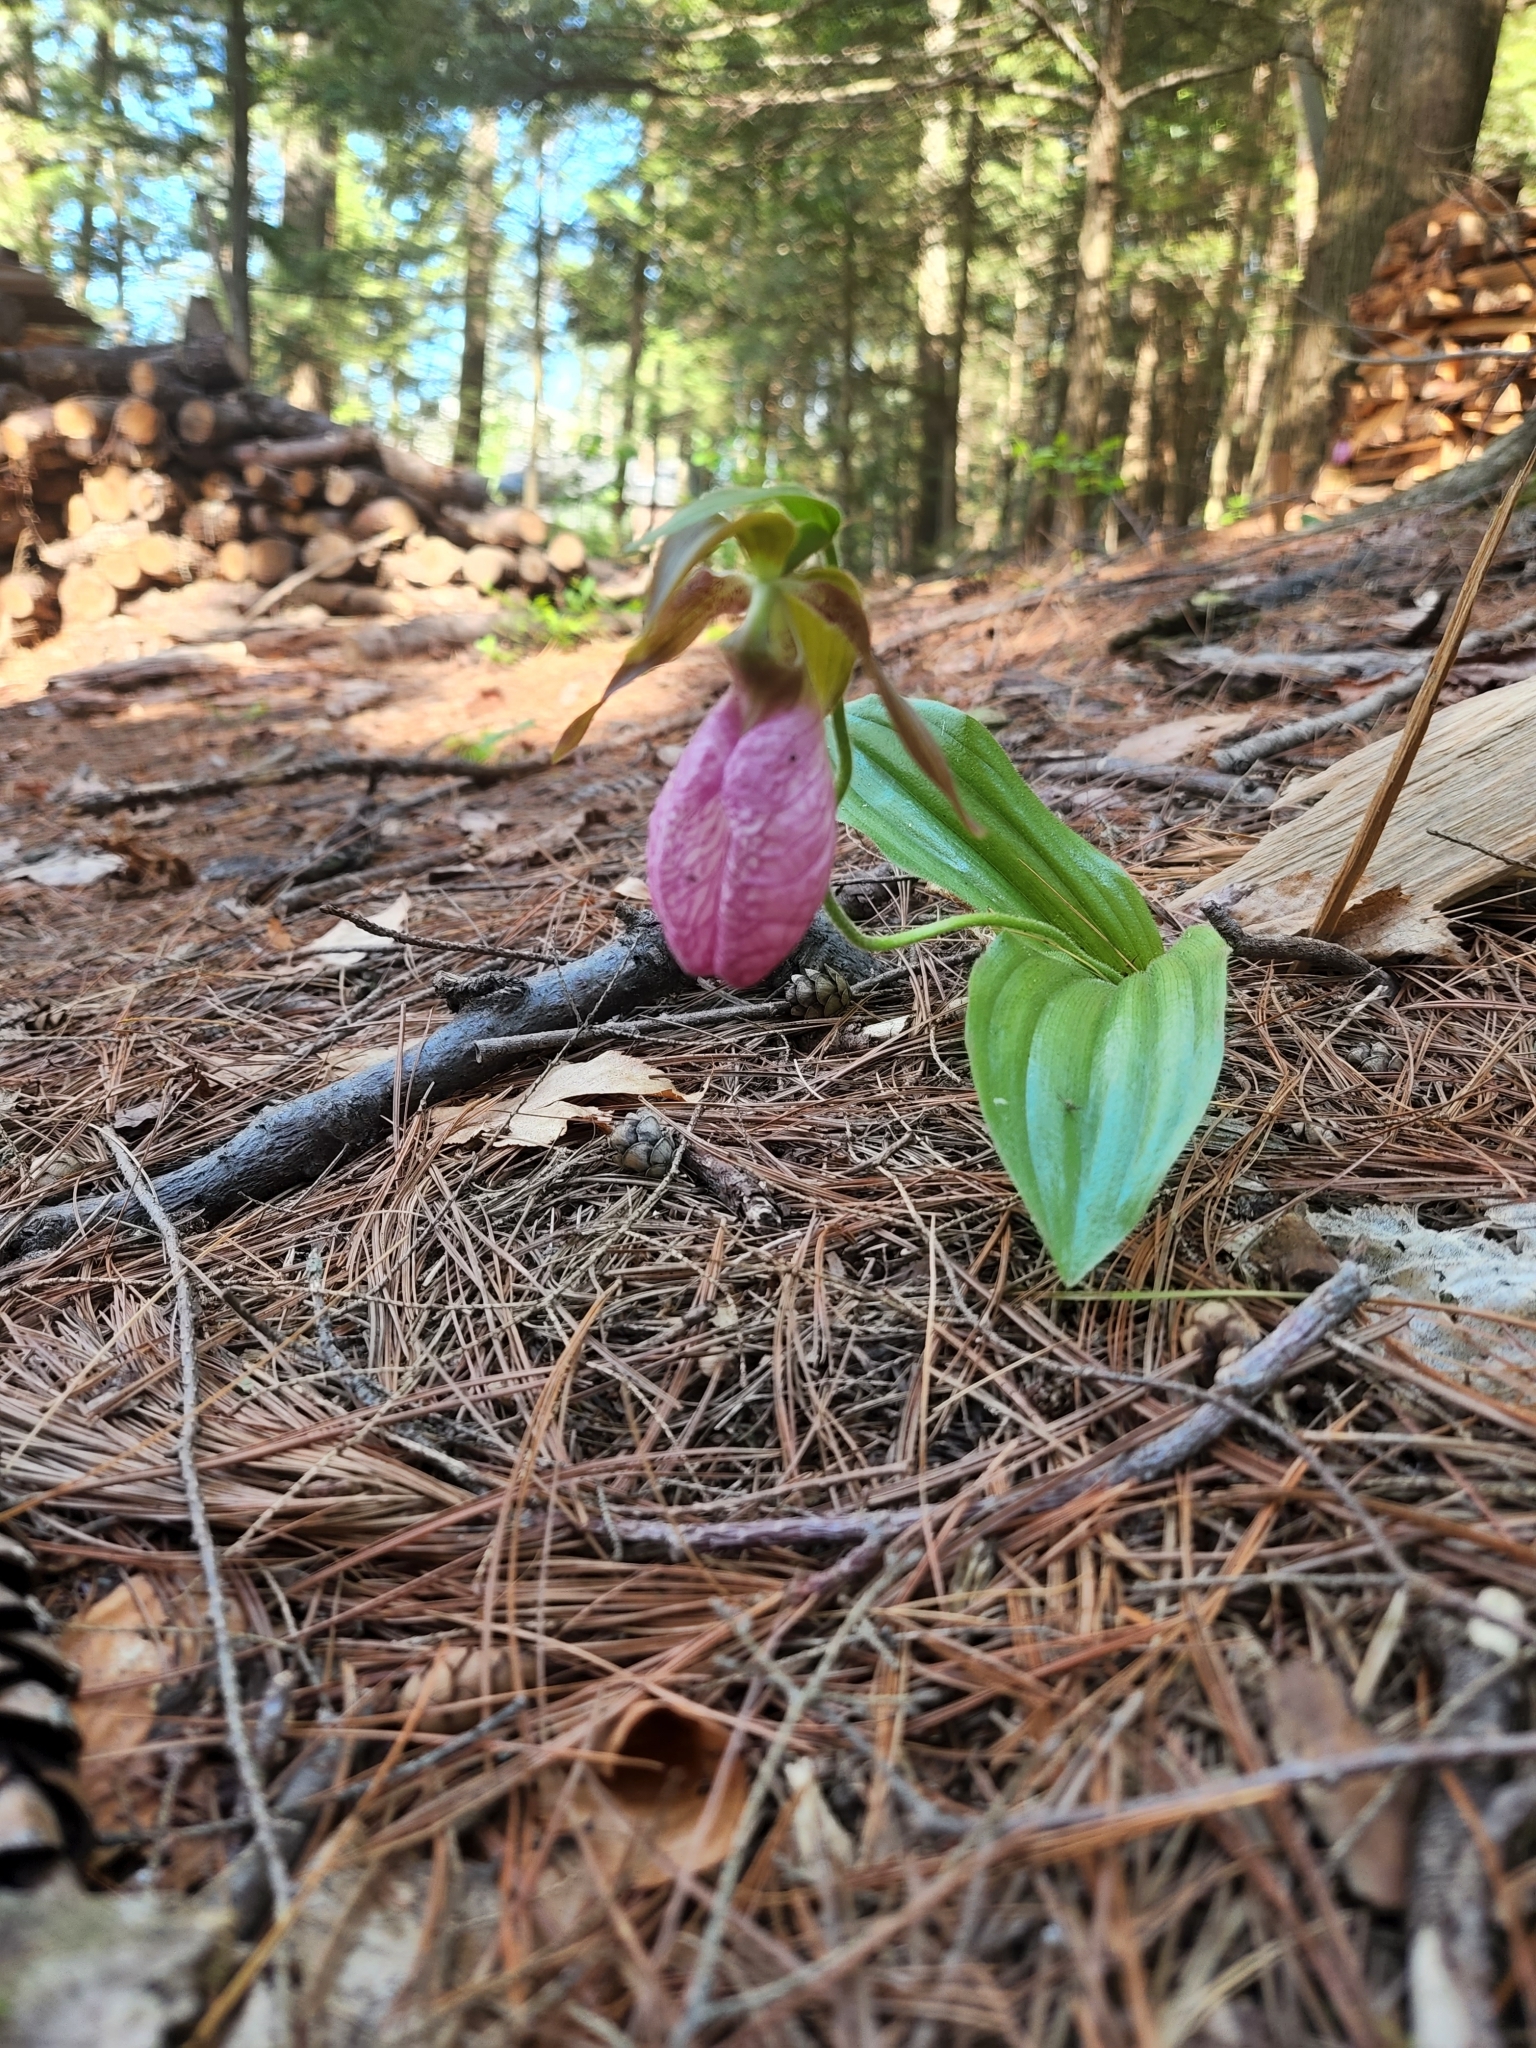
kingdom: Plantae
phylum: Tracheophyta
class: Liliopsida
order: Asparagales
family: Orchidaceae
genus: Cypripedium
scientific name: Cypripedium acaule
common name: Pink lady's-slipper
